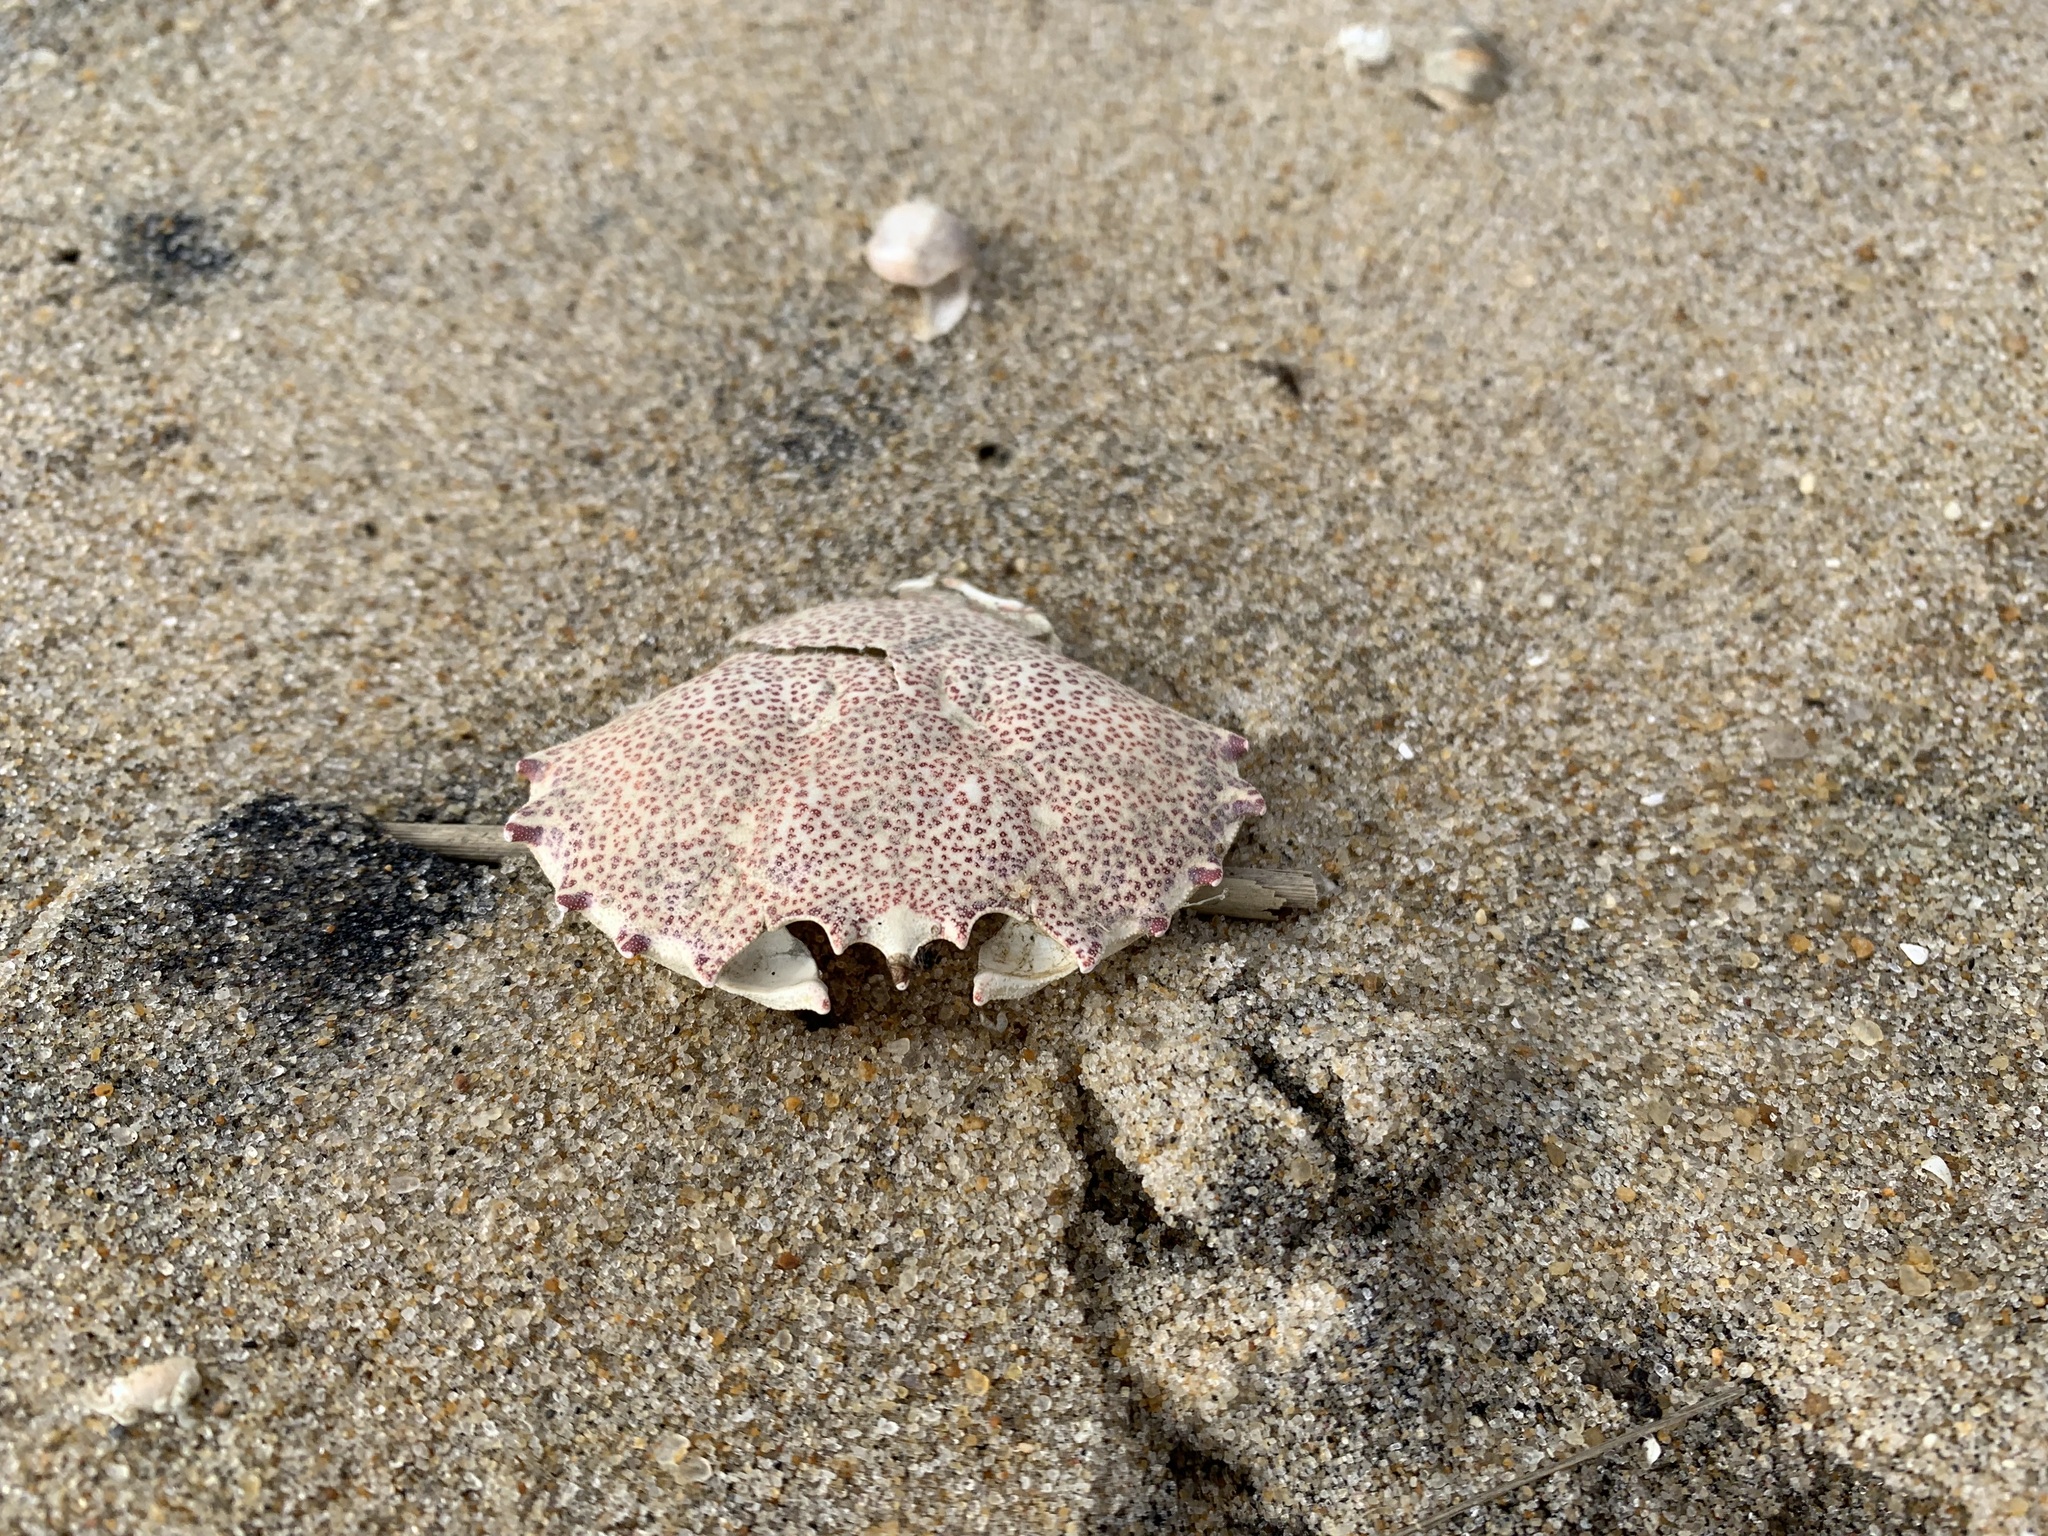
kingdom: Animalia
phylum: Arthropoda
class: Malacostraca
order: Decapoda
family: Ovalipidae
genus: Ovalipes
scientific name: Ovalipes ocellatus
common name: Lady crab
